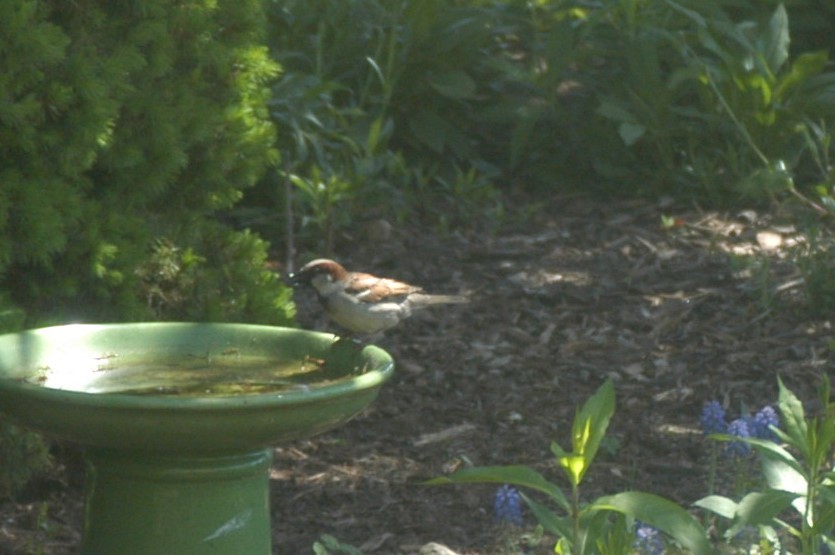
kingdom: Animalia
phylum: Chordata
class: Aves
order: Passeriformes
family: Passeridae
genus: Passer
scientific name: Passer domesticus
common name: House sparrow
